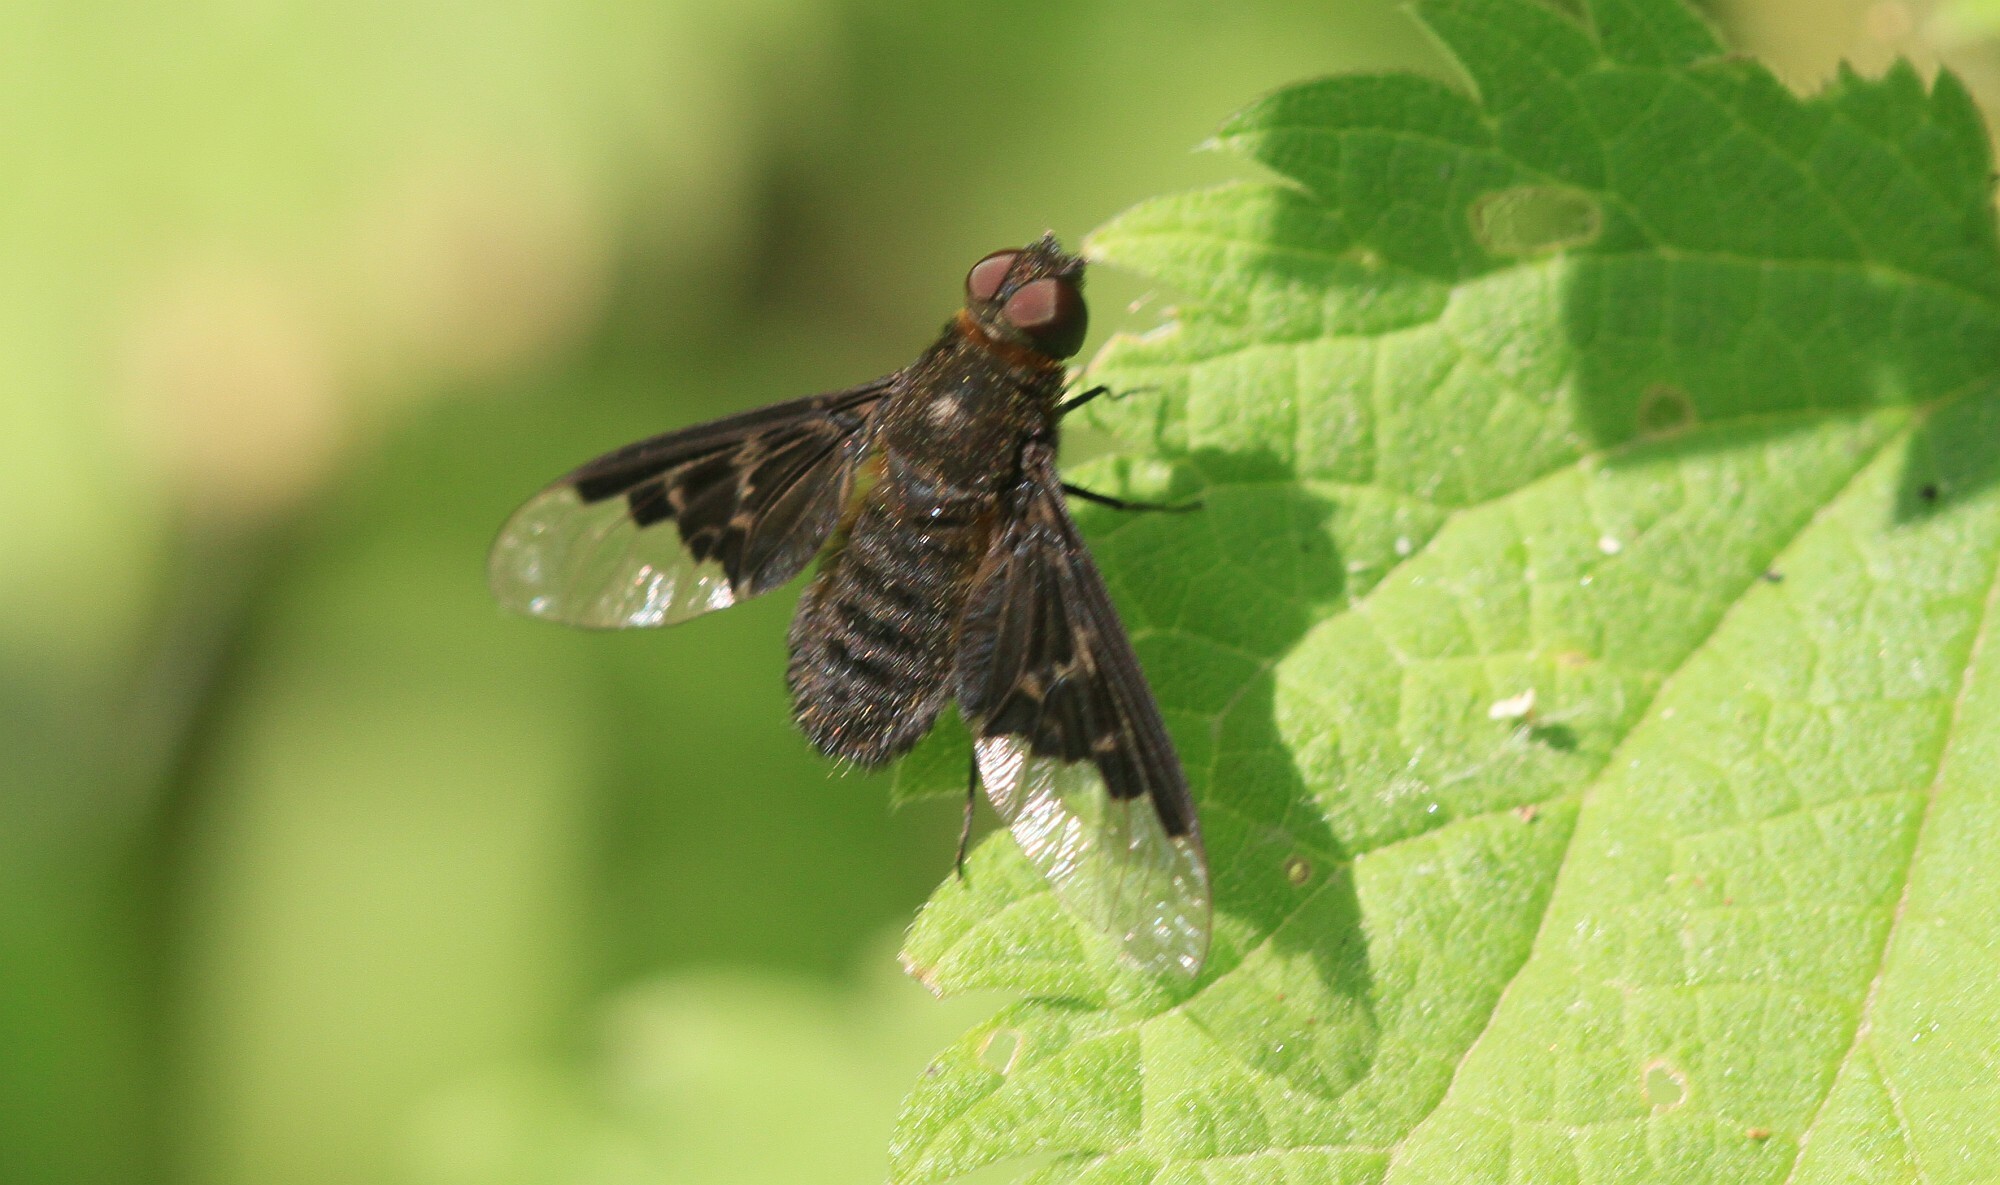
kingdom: Animalia
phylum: Arthropoda
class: Insecta
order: Diptera
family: Bombyliidae
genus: Hemipenthes
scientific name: Hemipenthes morio
